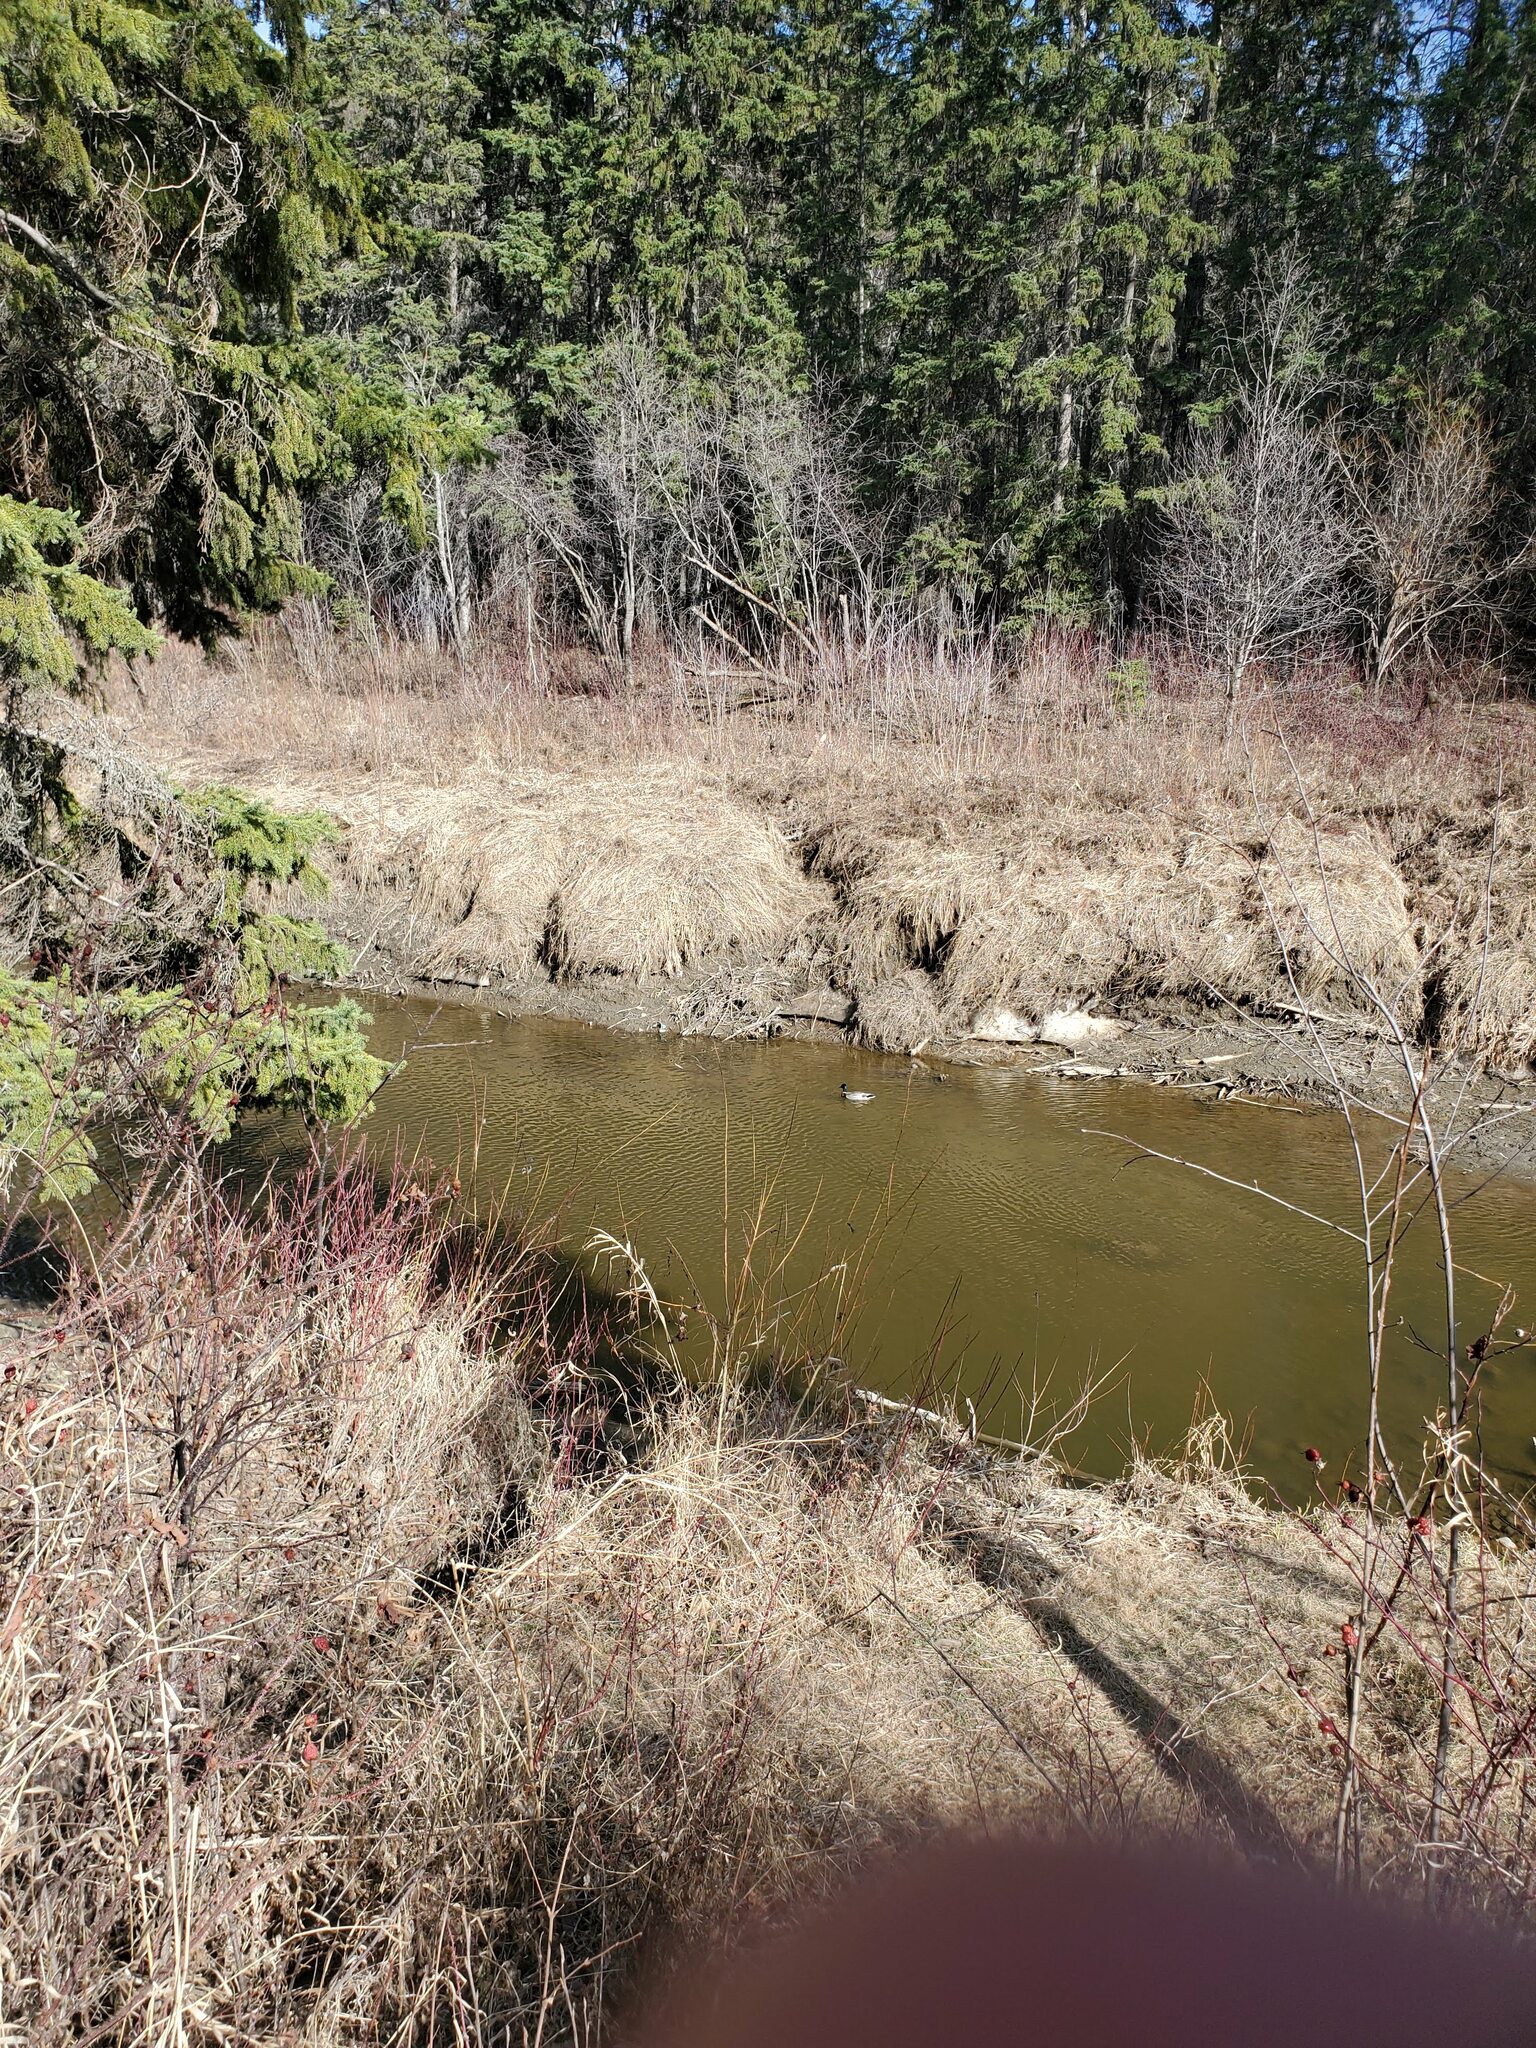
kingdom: Animalia
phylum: Chordata
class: Aves
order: Anseriformes
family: Anatidae
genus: Anas
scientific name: Anas platyrhynchos
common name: Mallard
